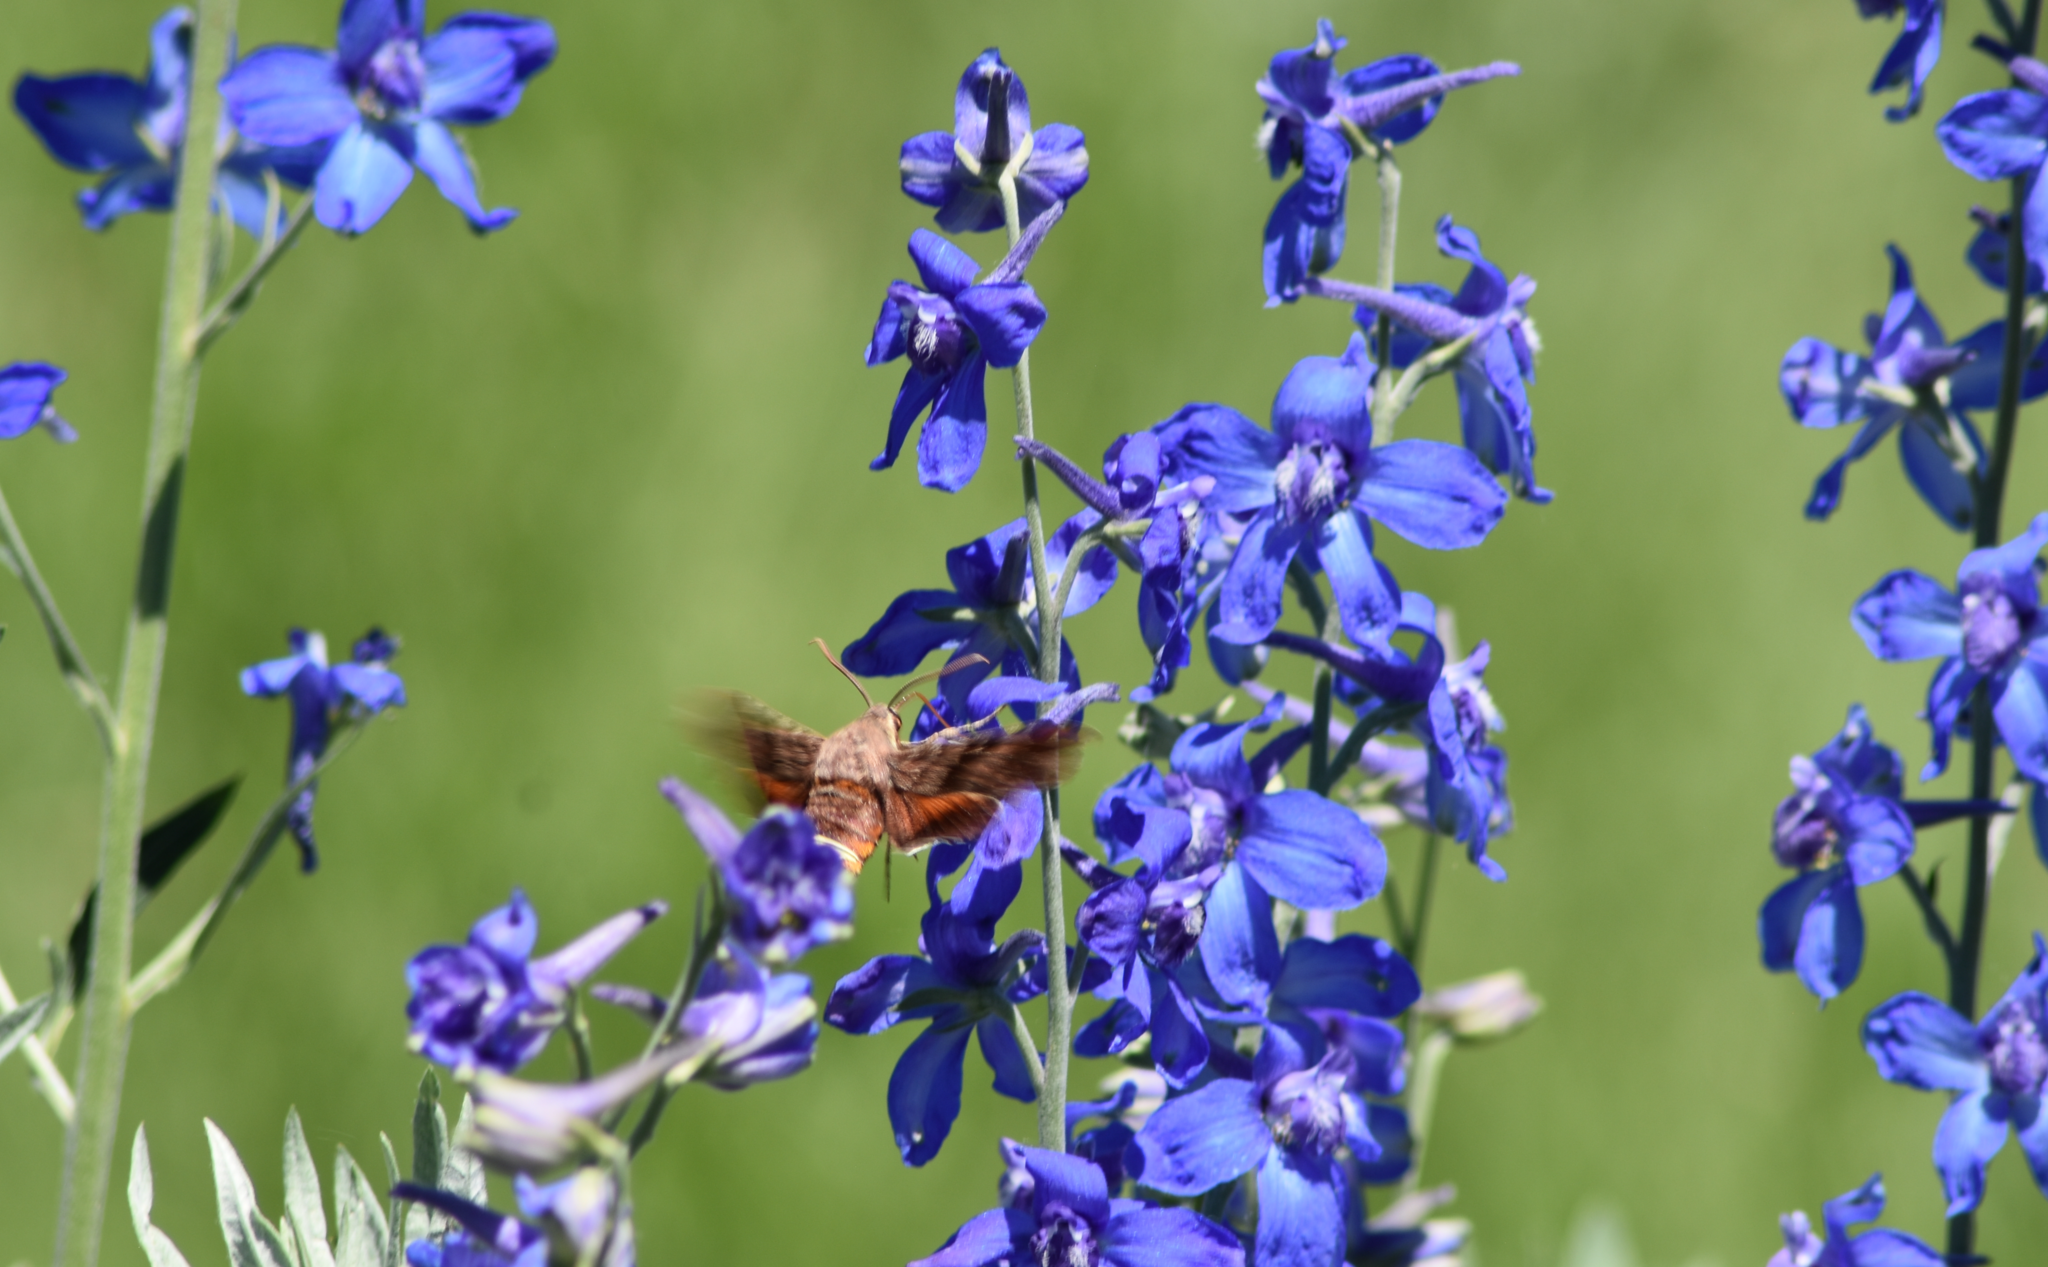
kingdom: Animalia
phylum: Arthropoda
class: Insecta
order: Lepidoptera
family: Sphingidae
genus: Amphion
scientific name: Amphion floridensis
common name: Nessus sphinx
